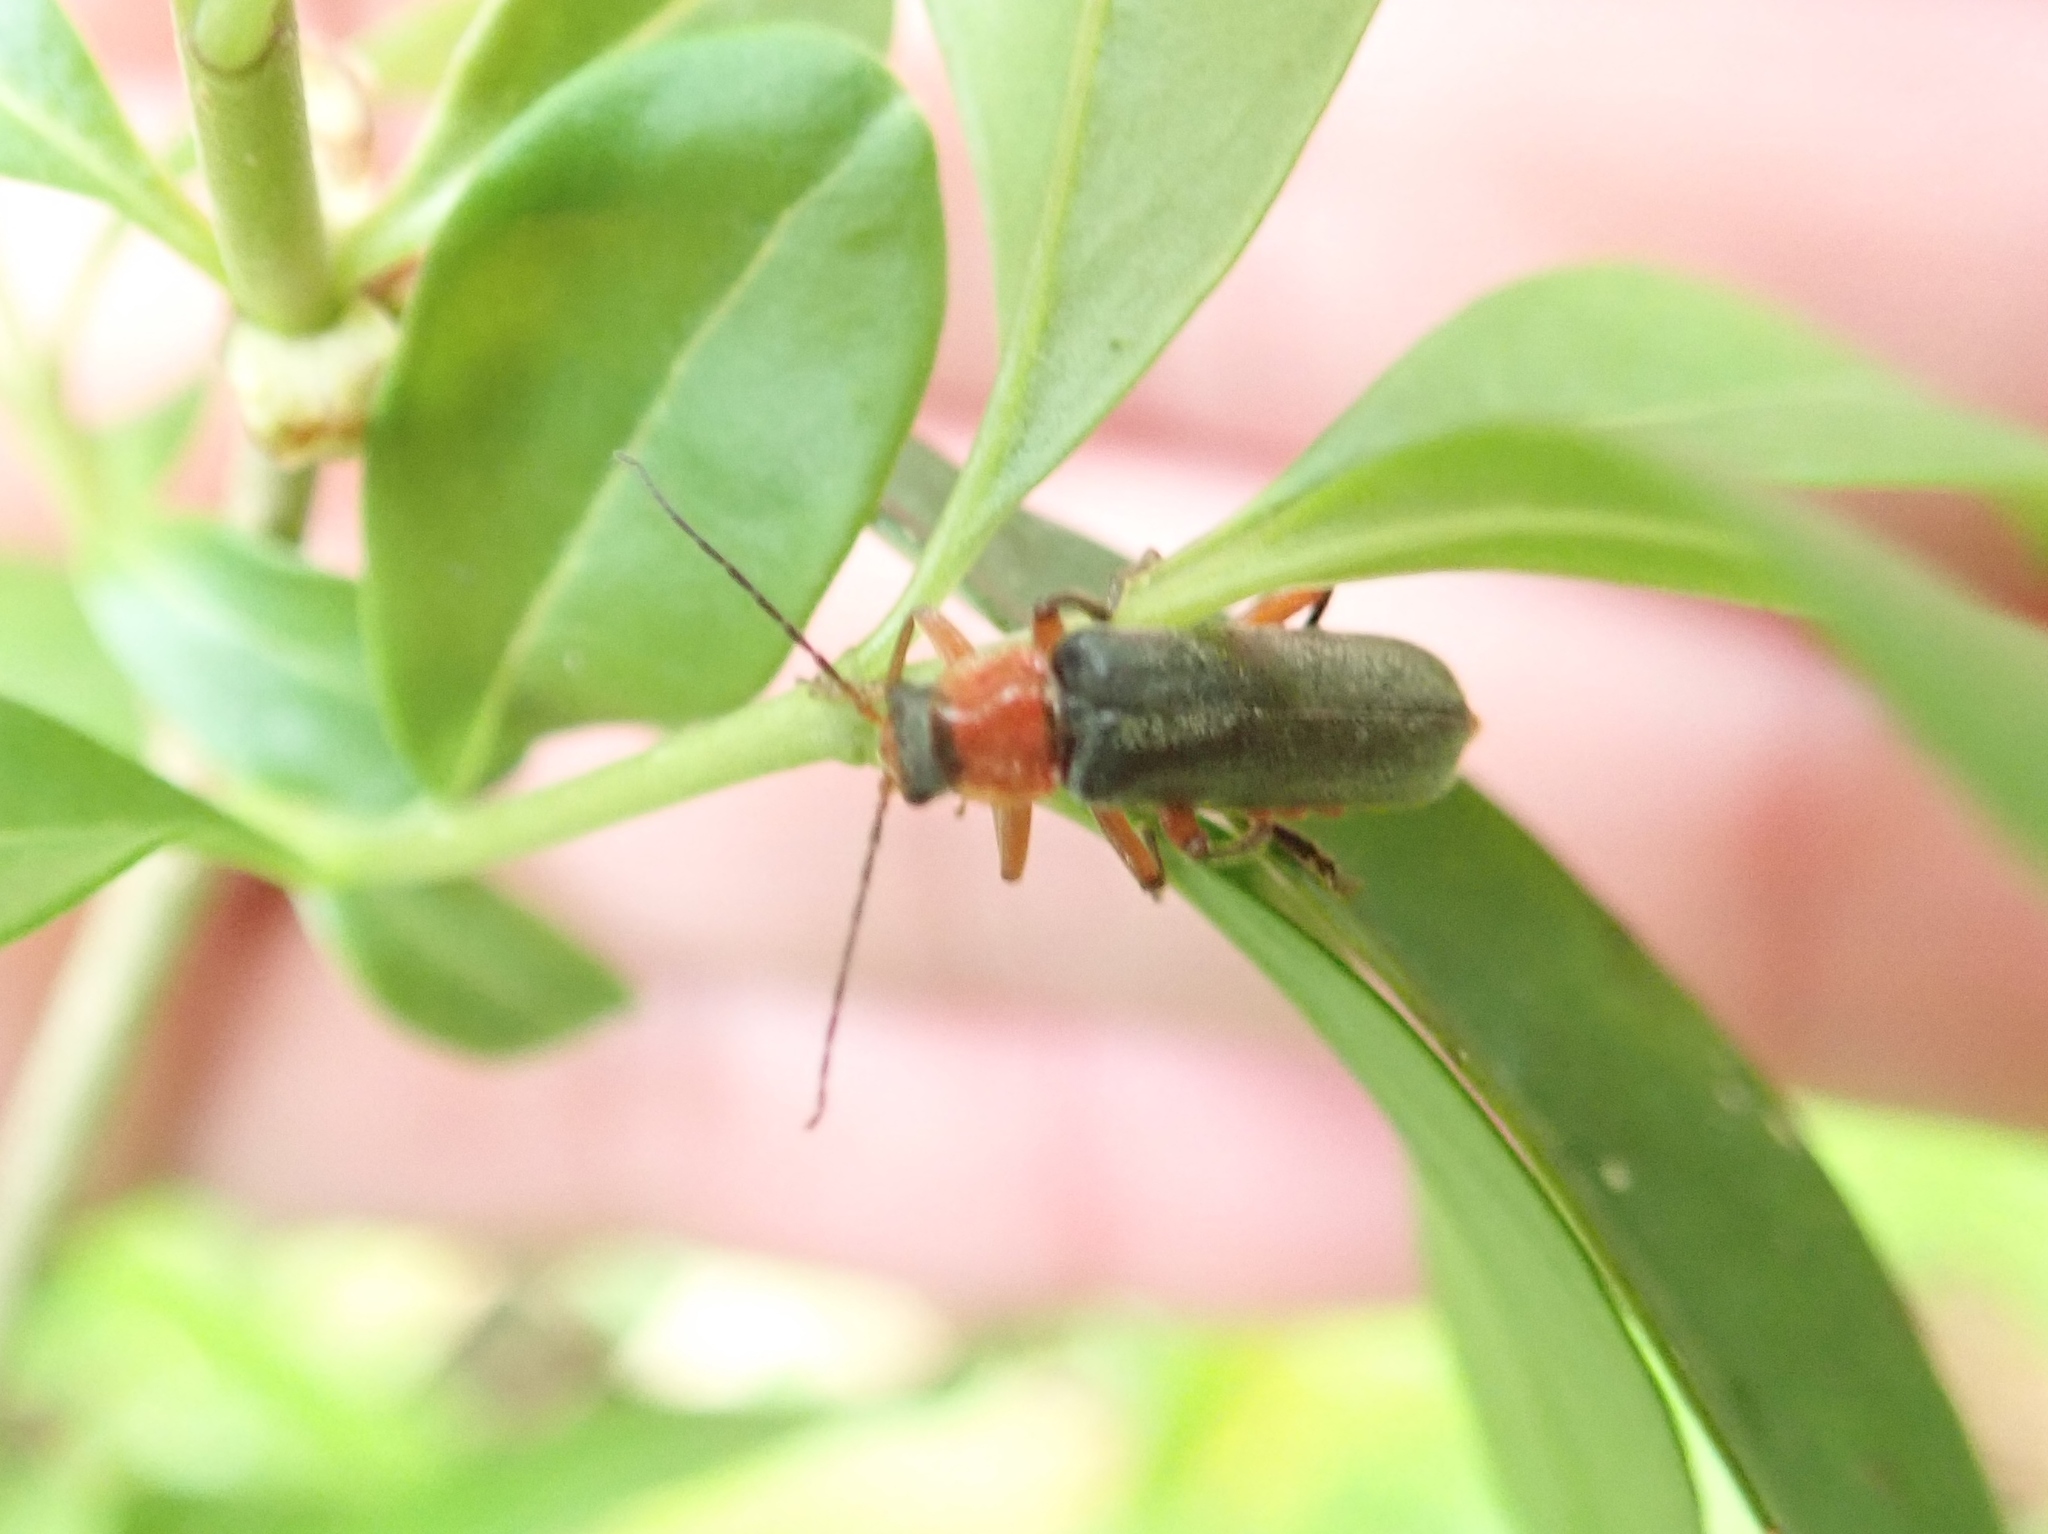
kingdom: Animalia
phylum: Arthropoda
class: Insecta
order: Coleoptera
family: Cantharidae
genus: Cantharis
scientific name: Cantharis pellucida
